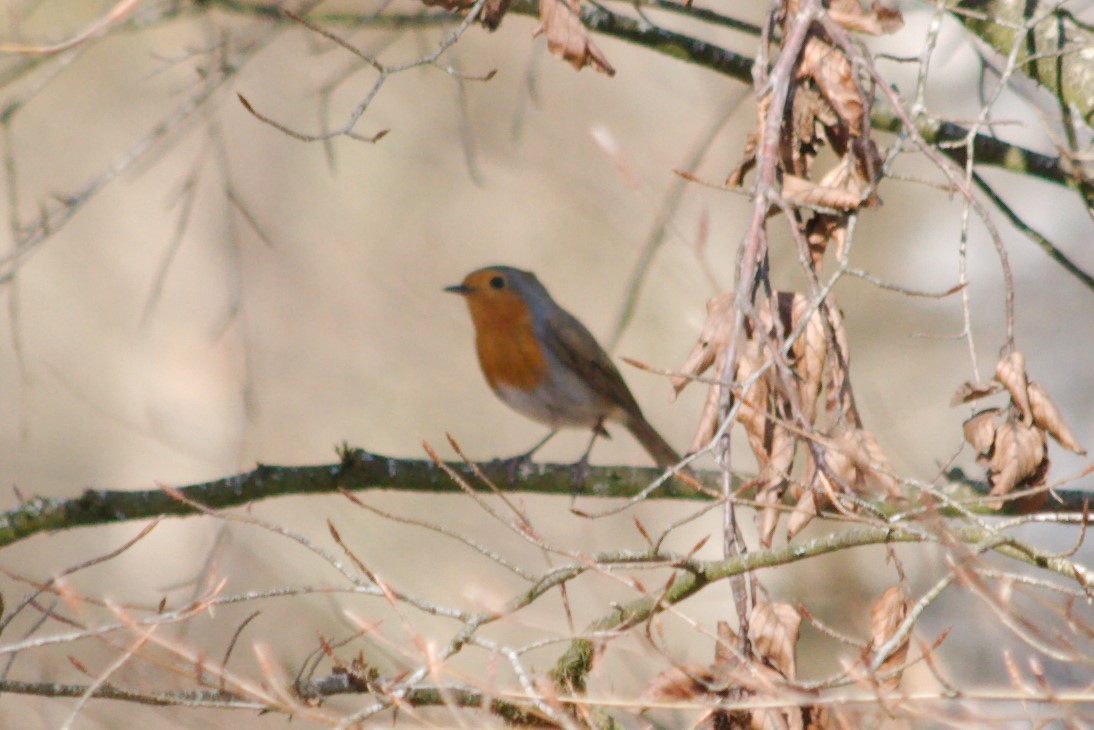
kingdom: Animalia
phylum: Chordata
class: Aves
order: Passeriformes
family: Muscicapidae
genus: Erithacus
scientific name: Erithacus rubecula
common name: European robin
